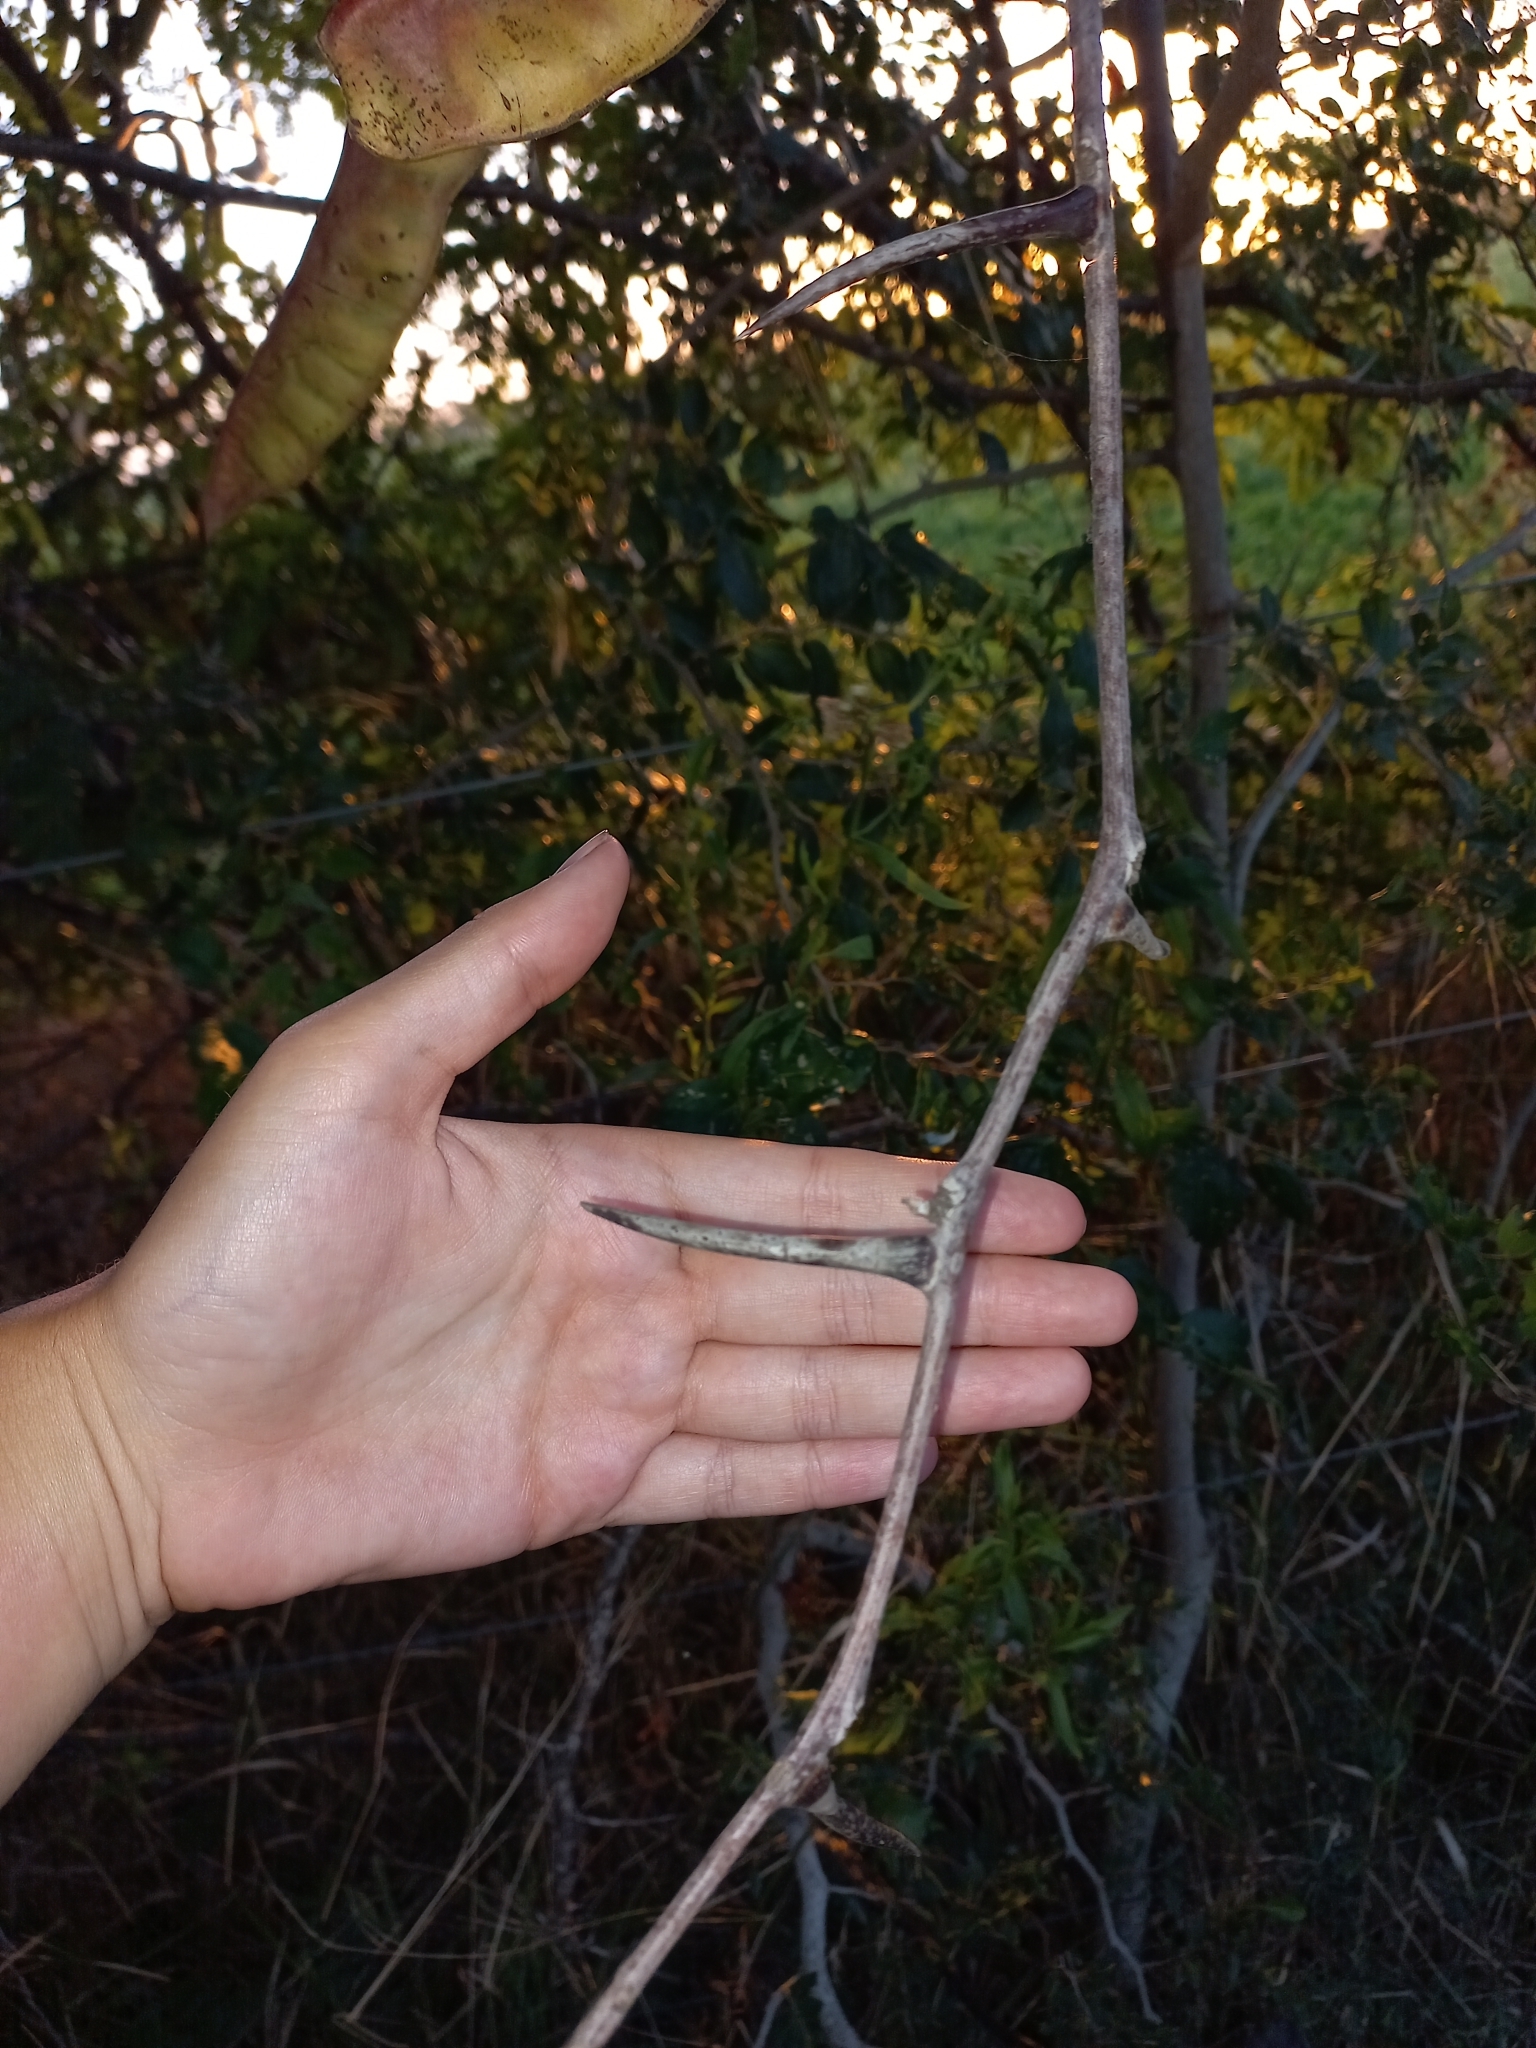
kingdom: Plantae
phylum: Tracheophyta
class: Magnoliopsida
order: Fabales
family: Fabaceae
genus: Gleditsia
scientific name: Gleditsia triacanthos
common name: Common honeylocust
